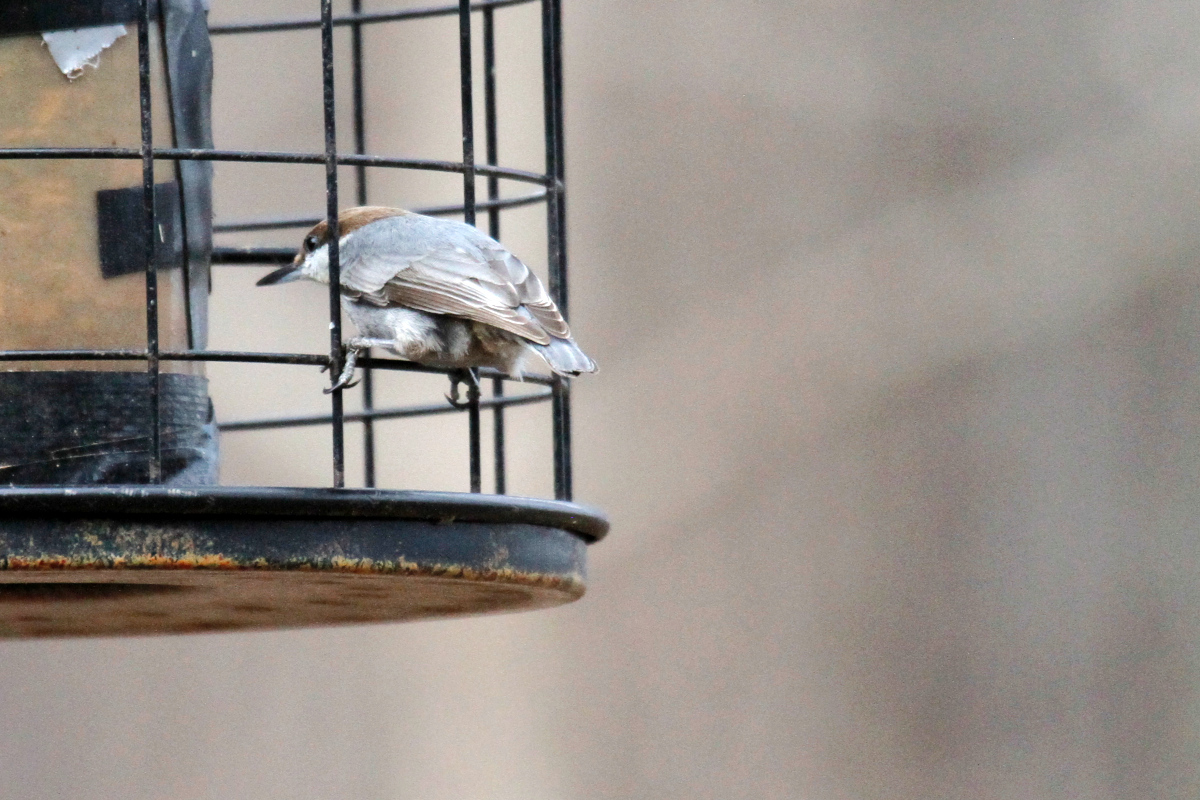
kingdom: Animalia
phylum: Chordata
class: Aves
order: Passeriformes
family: Sittidae
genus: Sitta
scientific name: Sitta pusilla
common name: Brown-headed nuthatch
